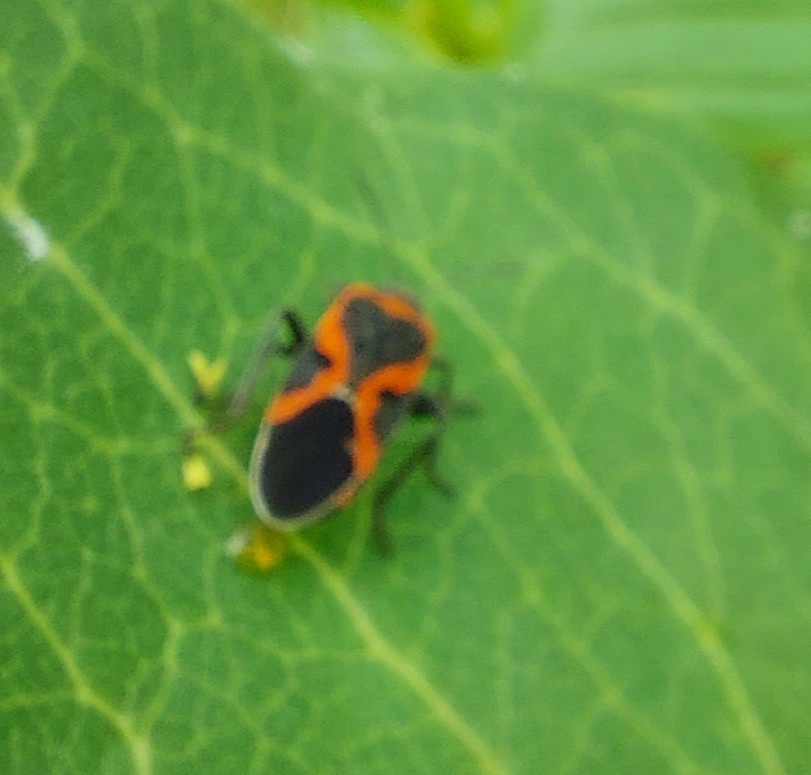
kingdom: Animalia
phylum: Arthropoda
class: Insecta
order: Hemiptera
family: Lygaeidae
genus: Lygaeus
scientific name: Lygaeus kalmii
